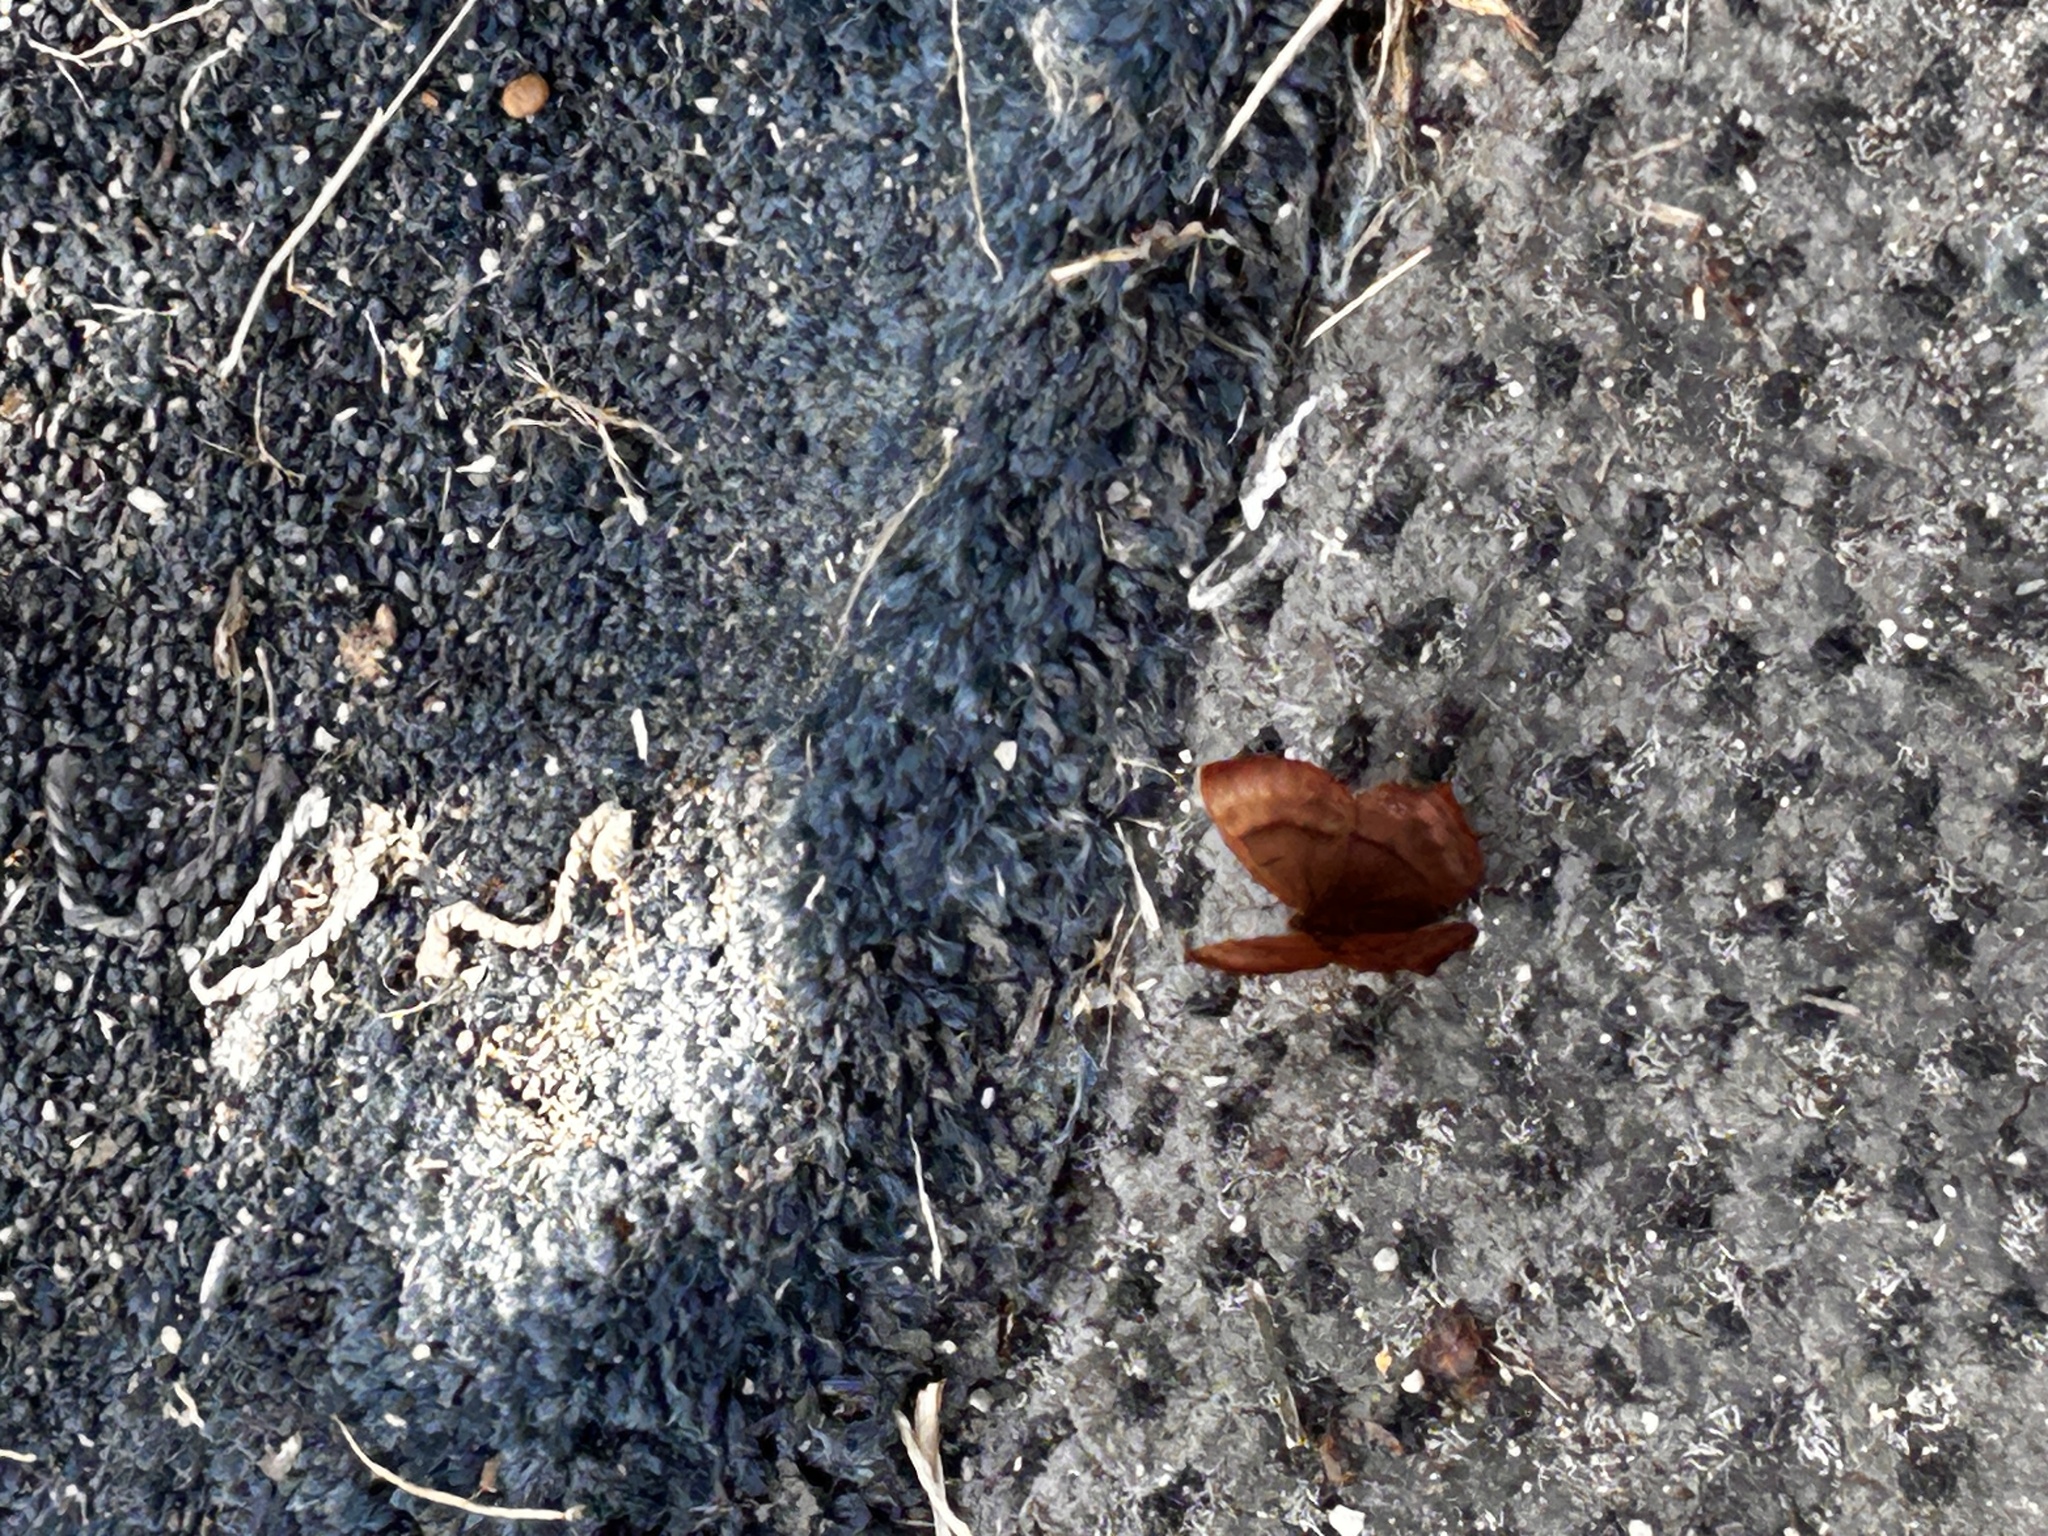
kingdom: Animalia
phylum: Arthropoda
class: Insecta
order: Lepidoptera
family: Lycaenidae
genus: Abisara
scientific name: Abisara echeria
